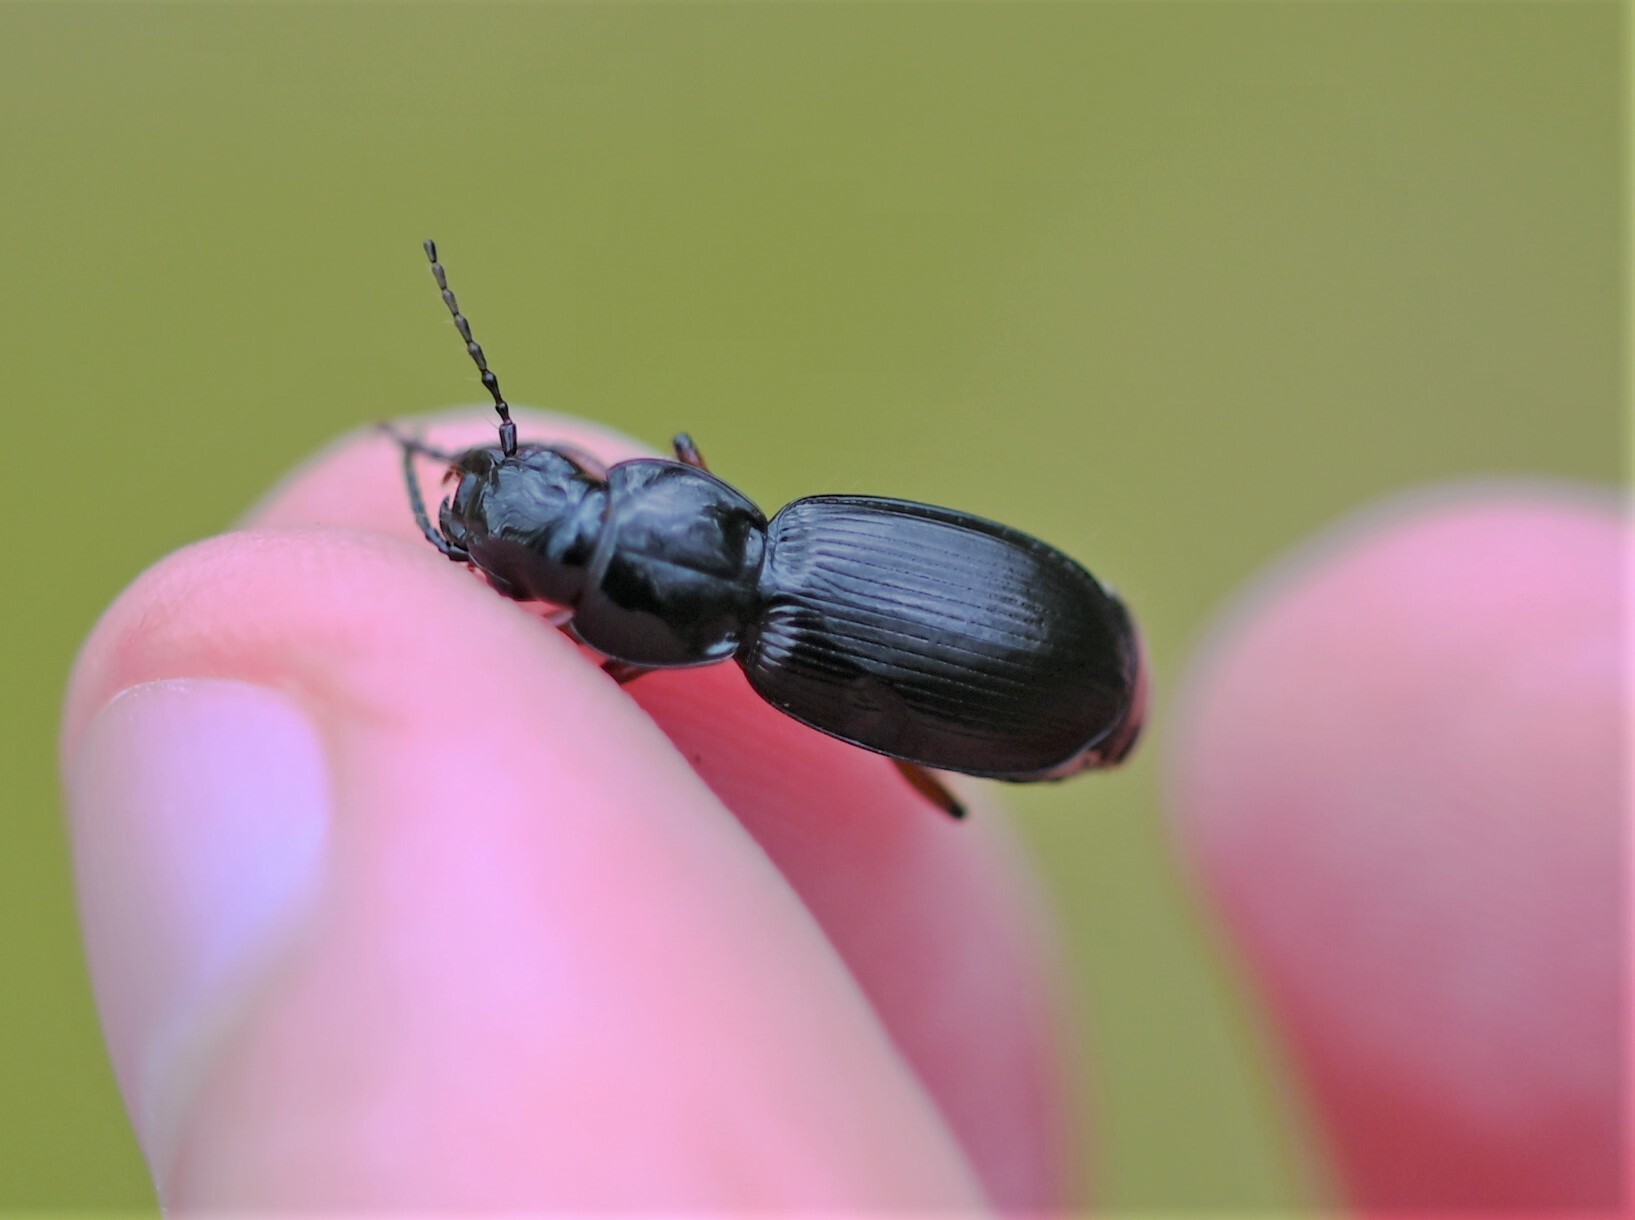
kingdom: Animalia
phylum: Arthropoda
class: Insecta
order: Coleoptera
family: Carabidae
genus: Pterostichus
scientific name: Pterostichus madidus
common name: Black clock
